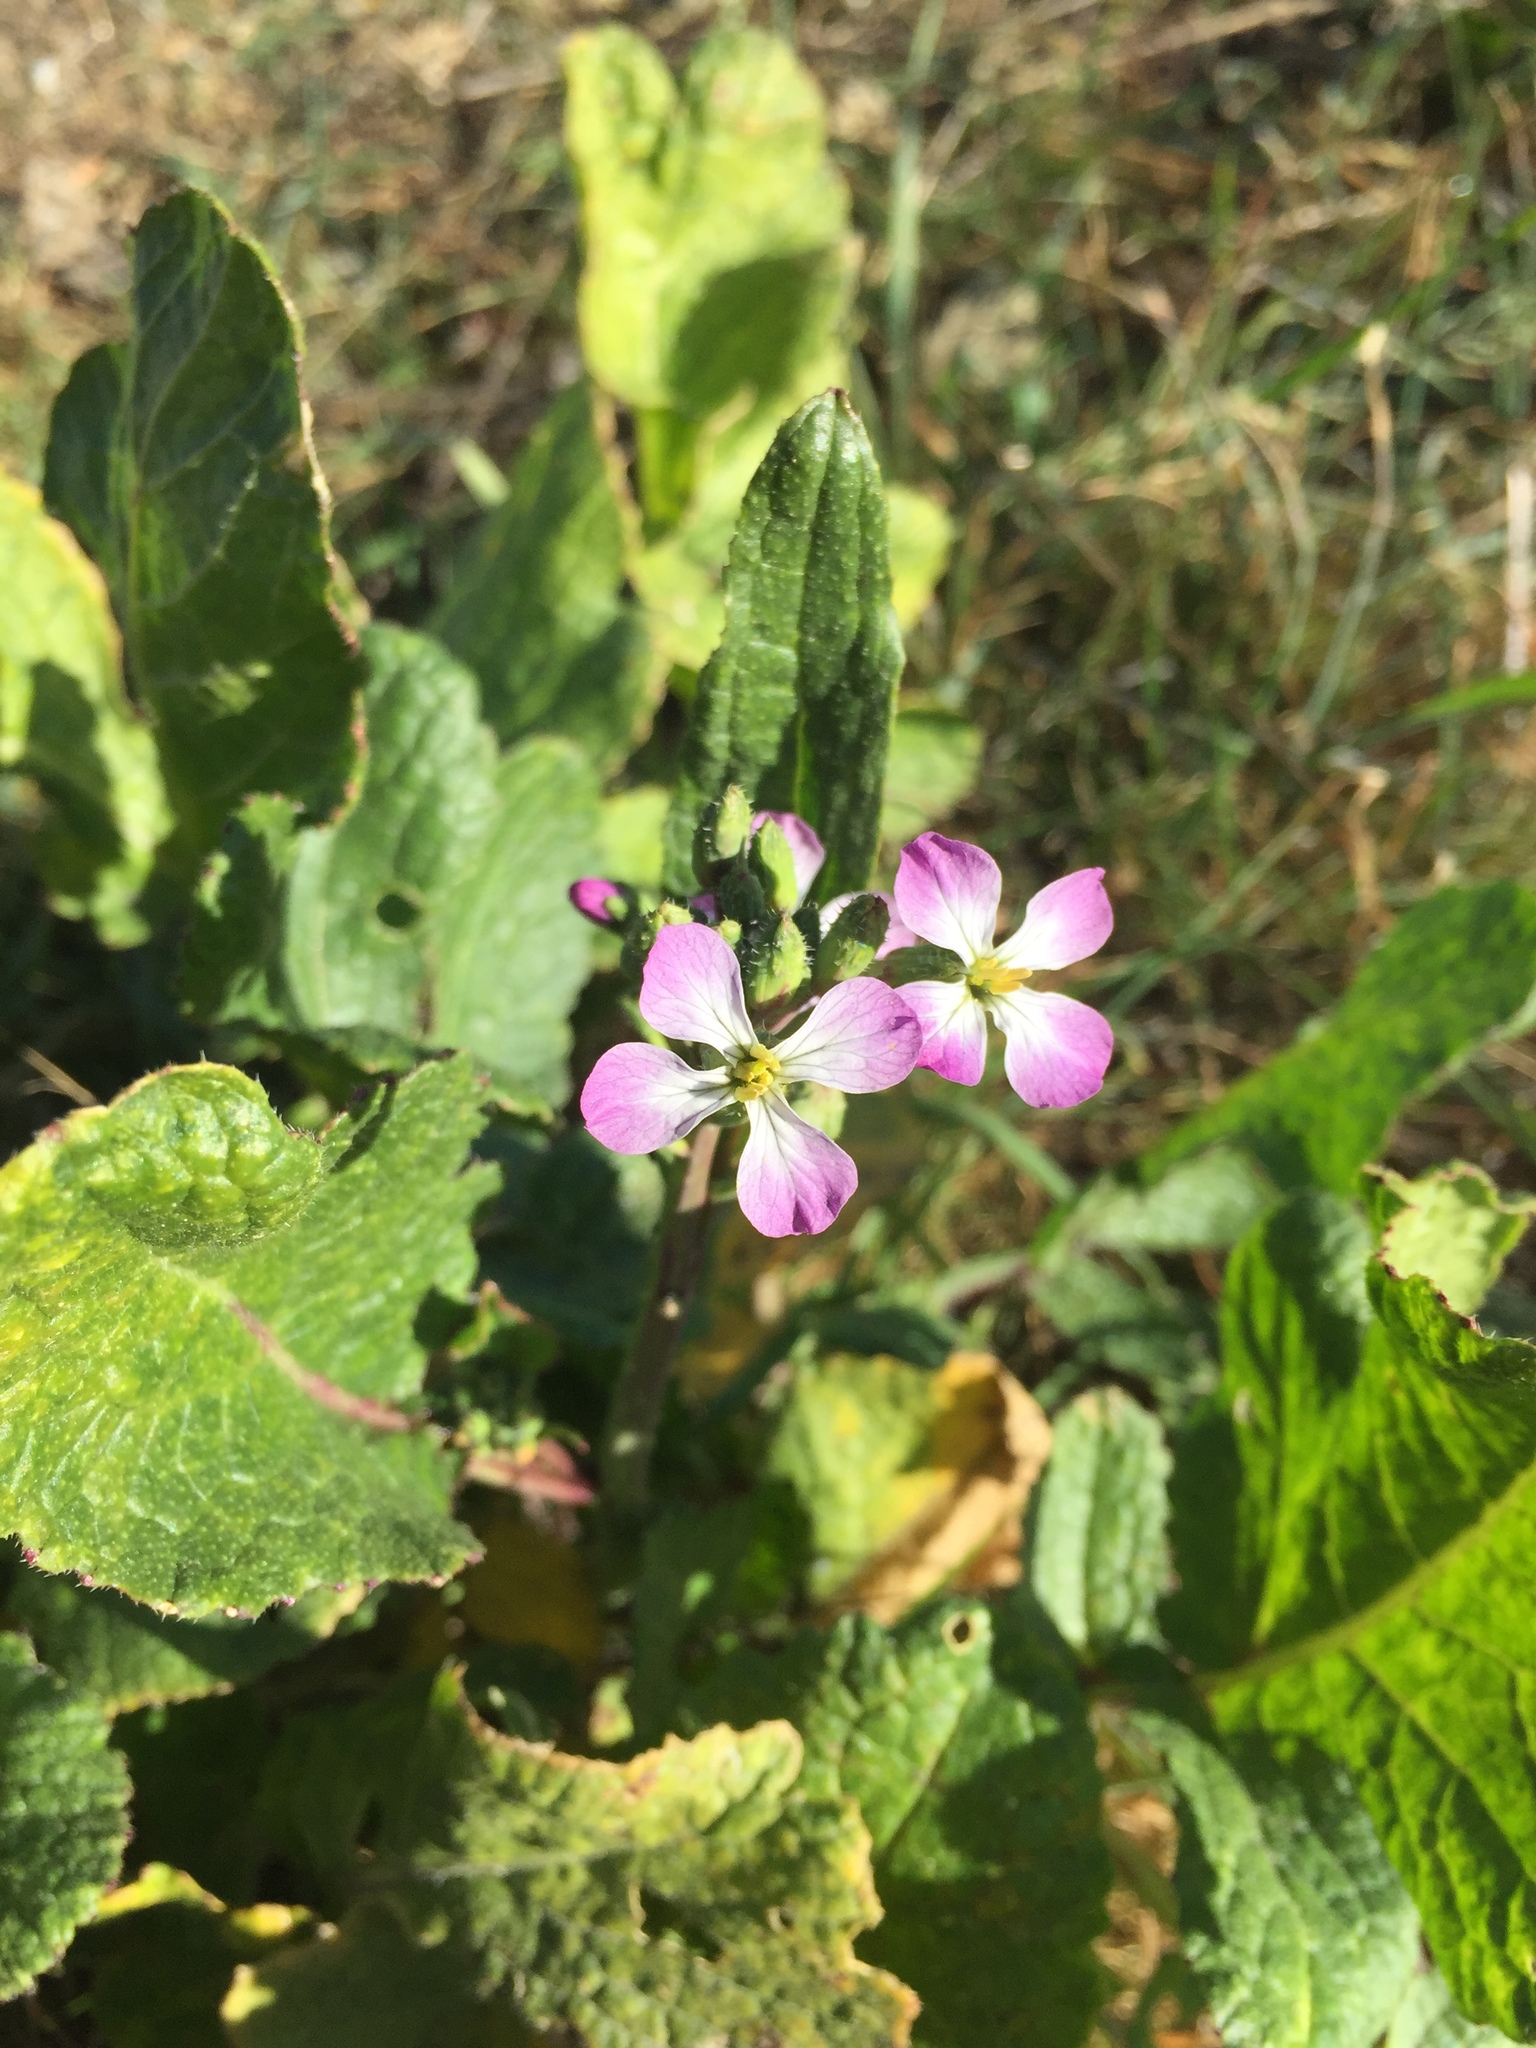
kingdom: Plantae
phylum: Tracheophyta
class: Magnoliopsida
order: Brassicales
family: Brassicaceae
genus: Raphanus
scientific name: Raphanus sativus
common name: Cultivated radish
